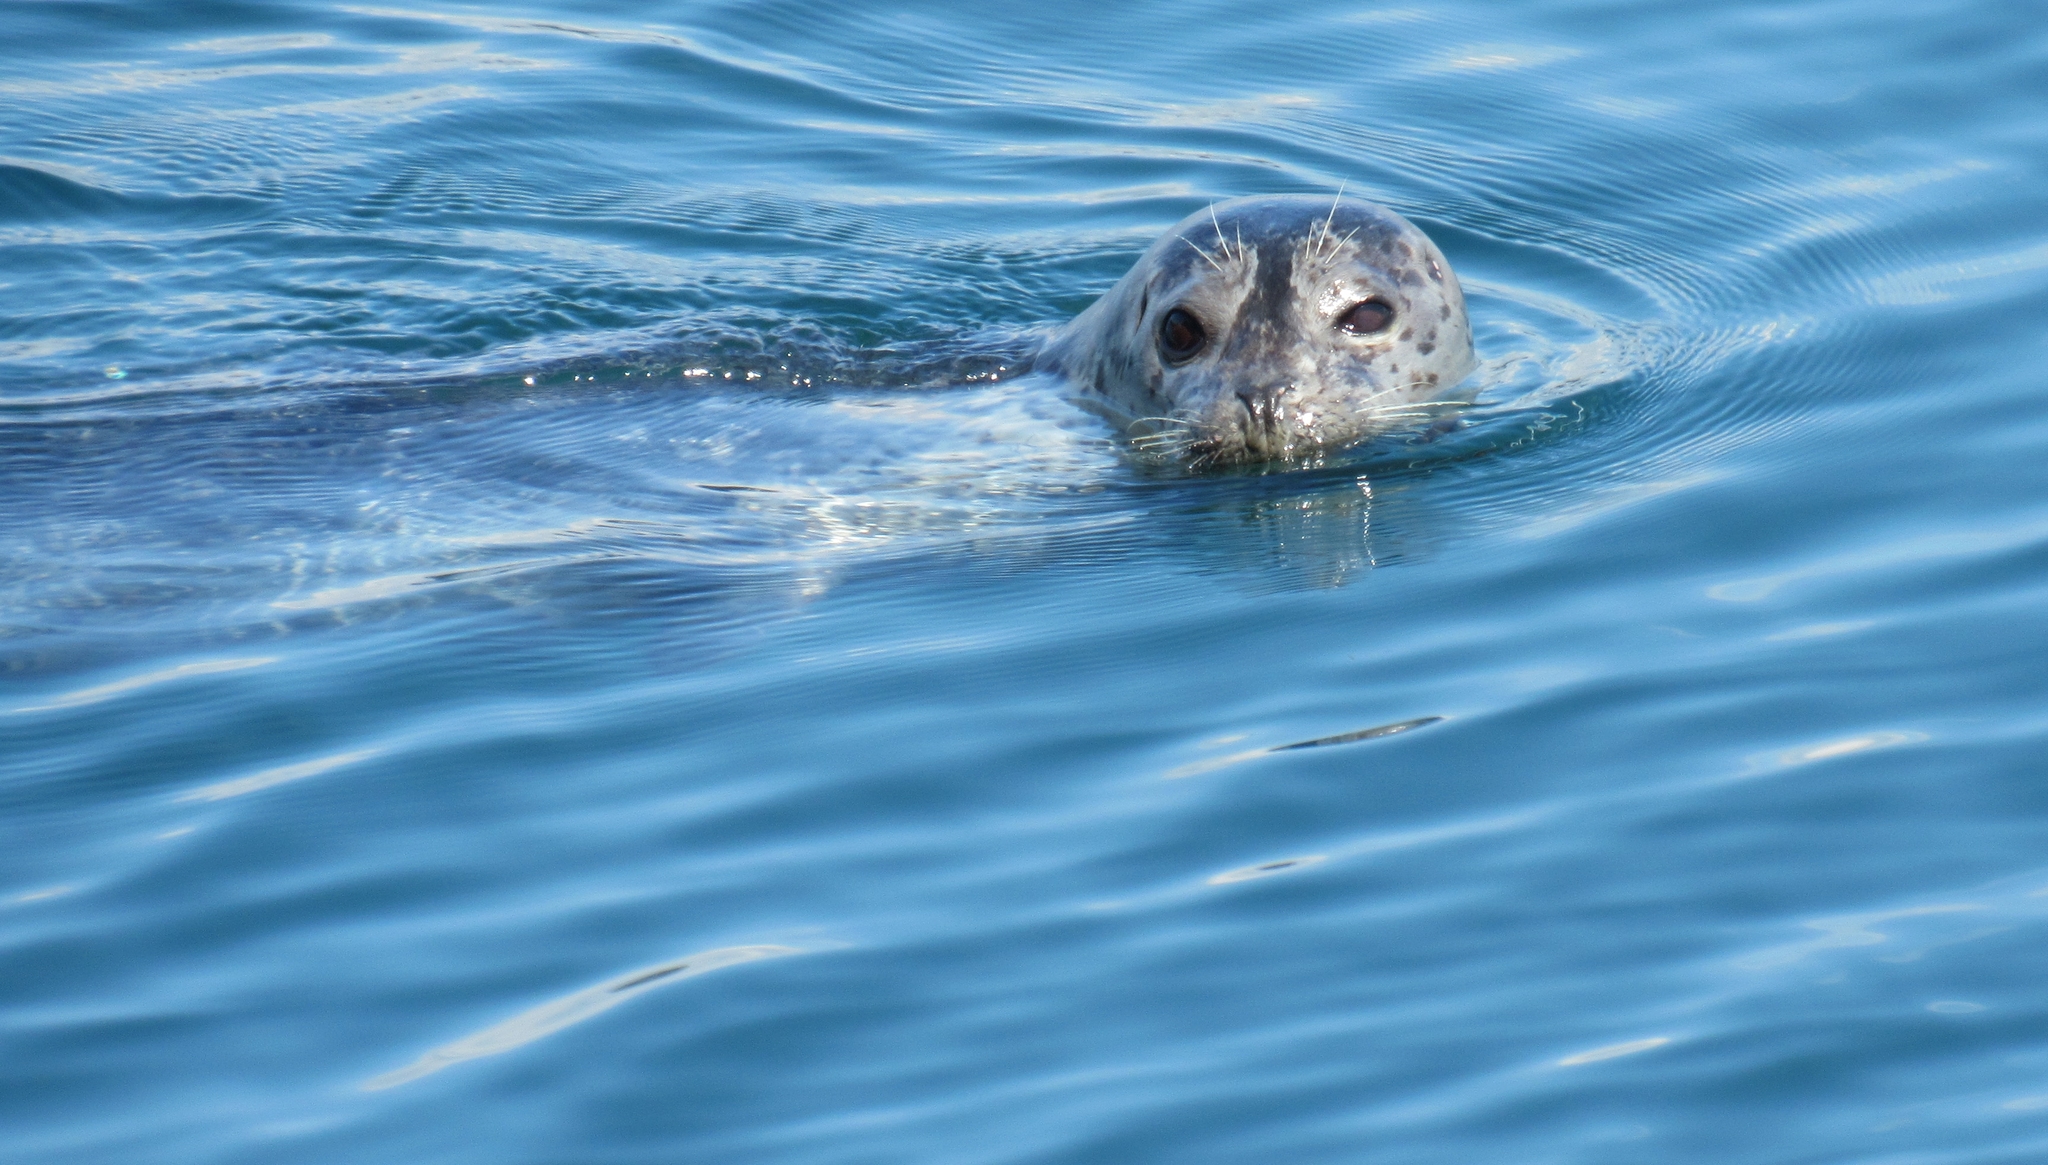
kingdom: Animalia
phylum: Chordata
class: Mammalia
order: Carnivora
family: Phocidae
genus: Phoca
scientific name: Phoca vitulina
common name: Harbor seal
